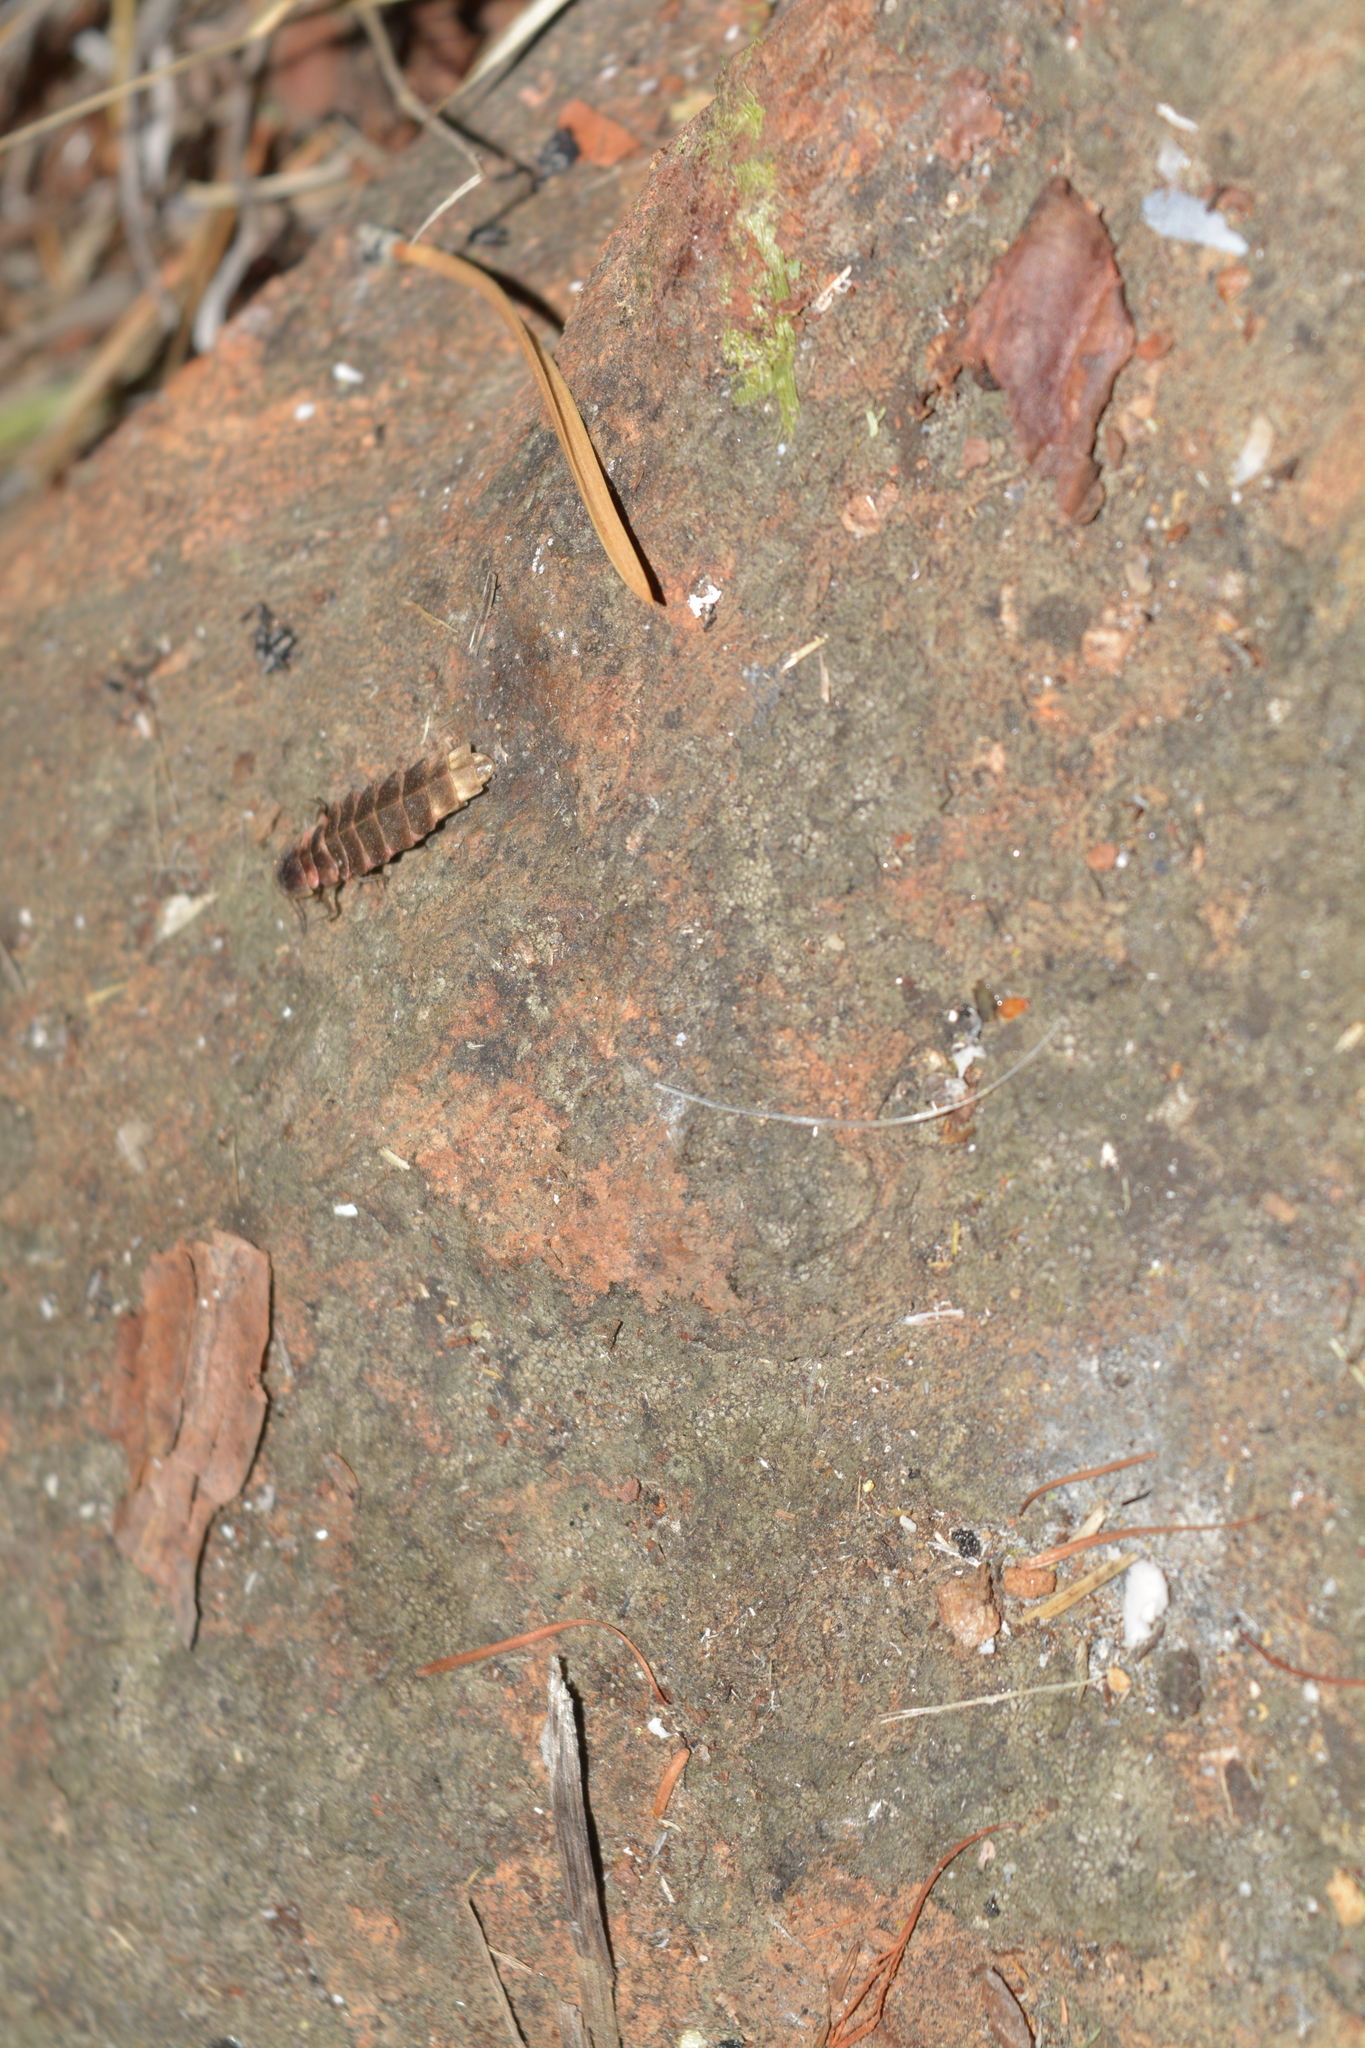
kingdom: Animalia
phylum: Arthropoda
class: Insecta
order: Coleoptera
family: Lampyridae
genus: Lampyris
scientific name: Lampyris noctiluca
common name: Glow-worm
